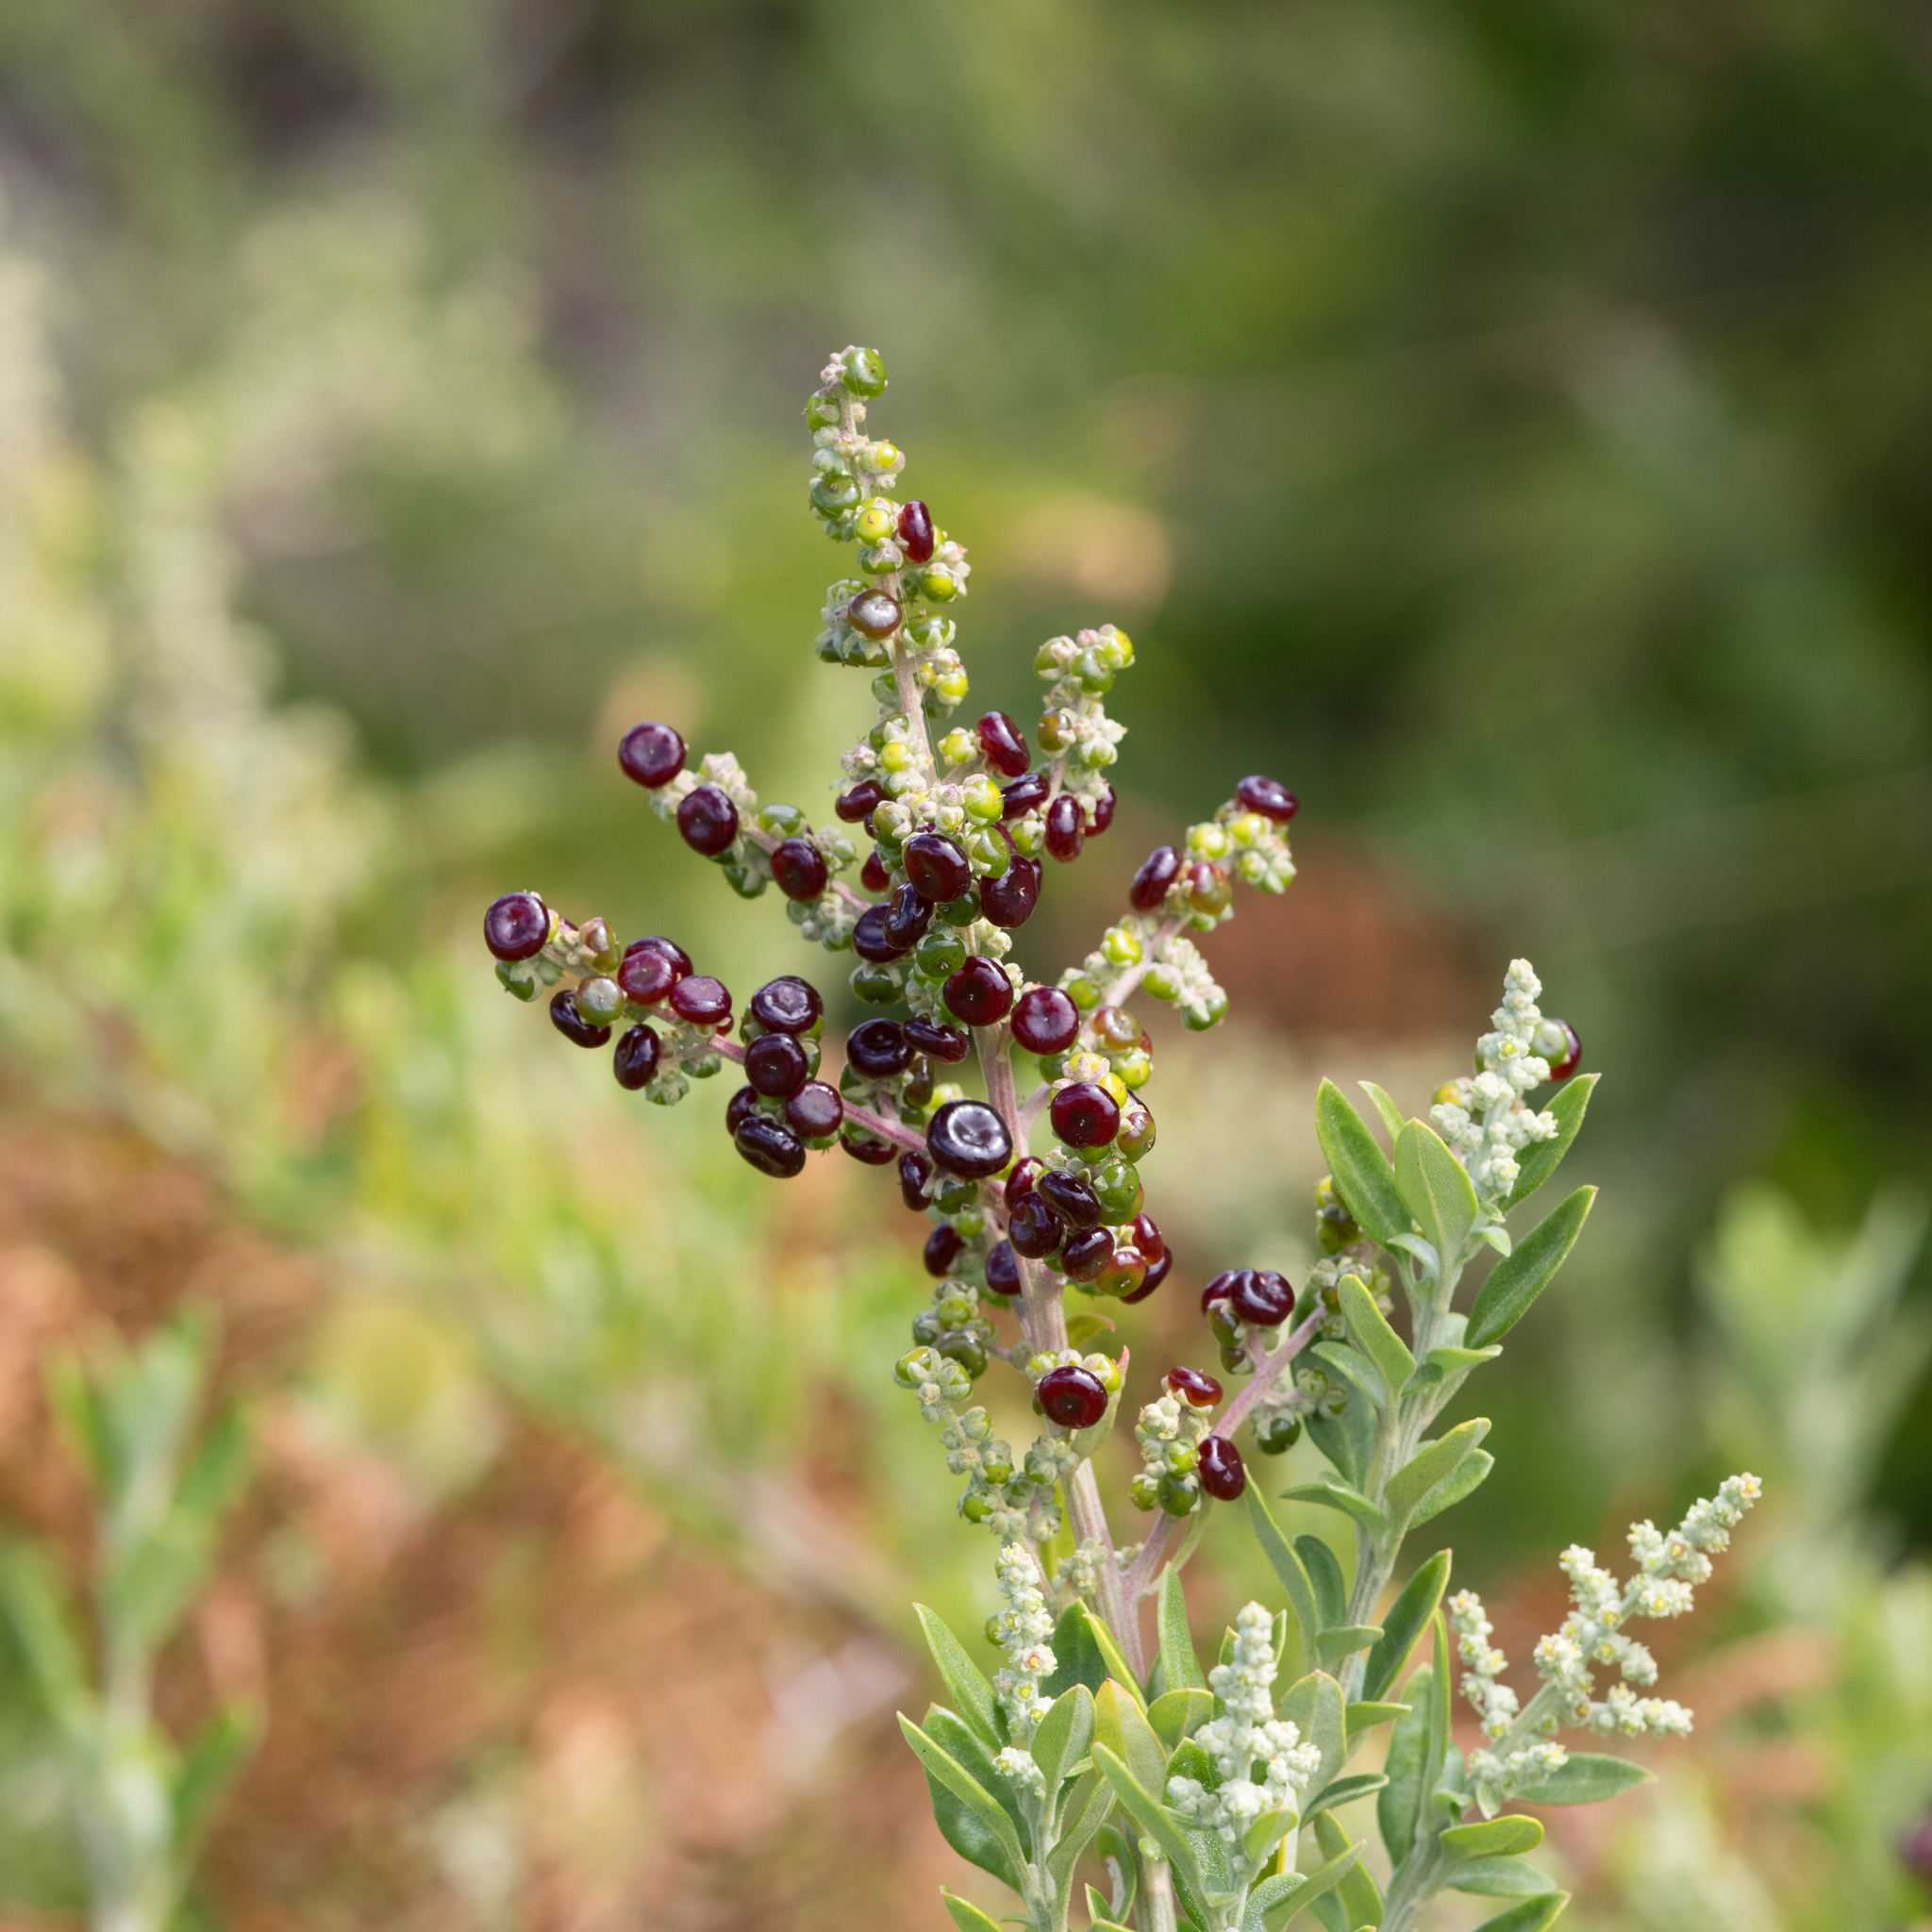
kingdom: Plantae
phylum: Tracheophyta
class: Magnoliopsida
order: Caryophyllales
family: Amaranthaceae
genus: Chenopodium
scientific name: Chenopodium candolleanum
